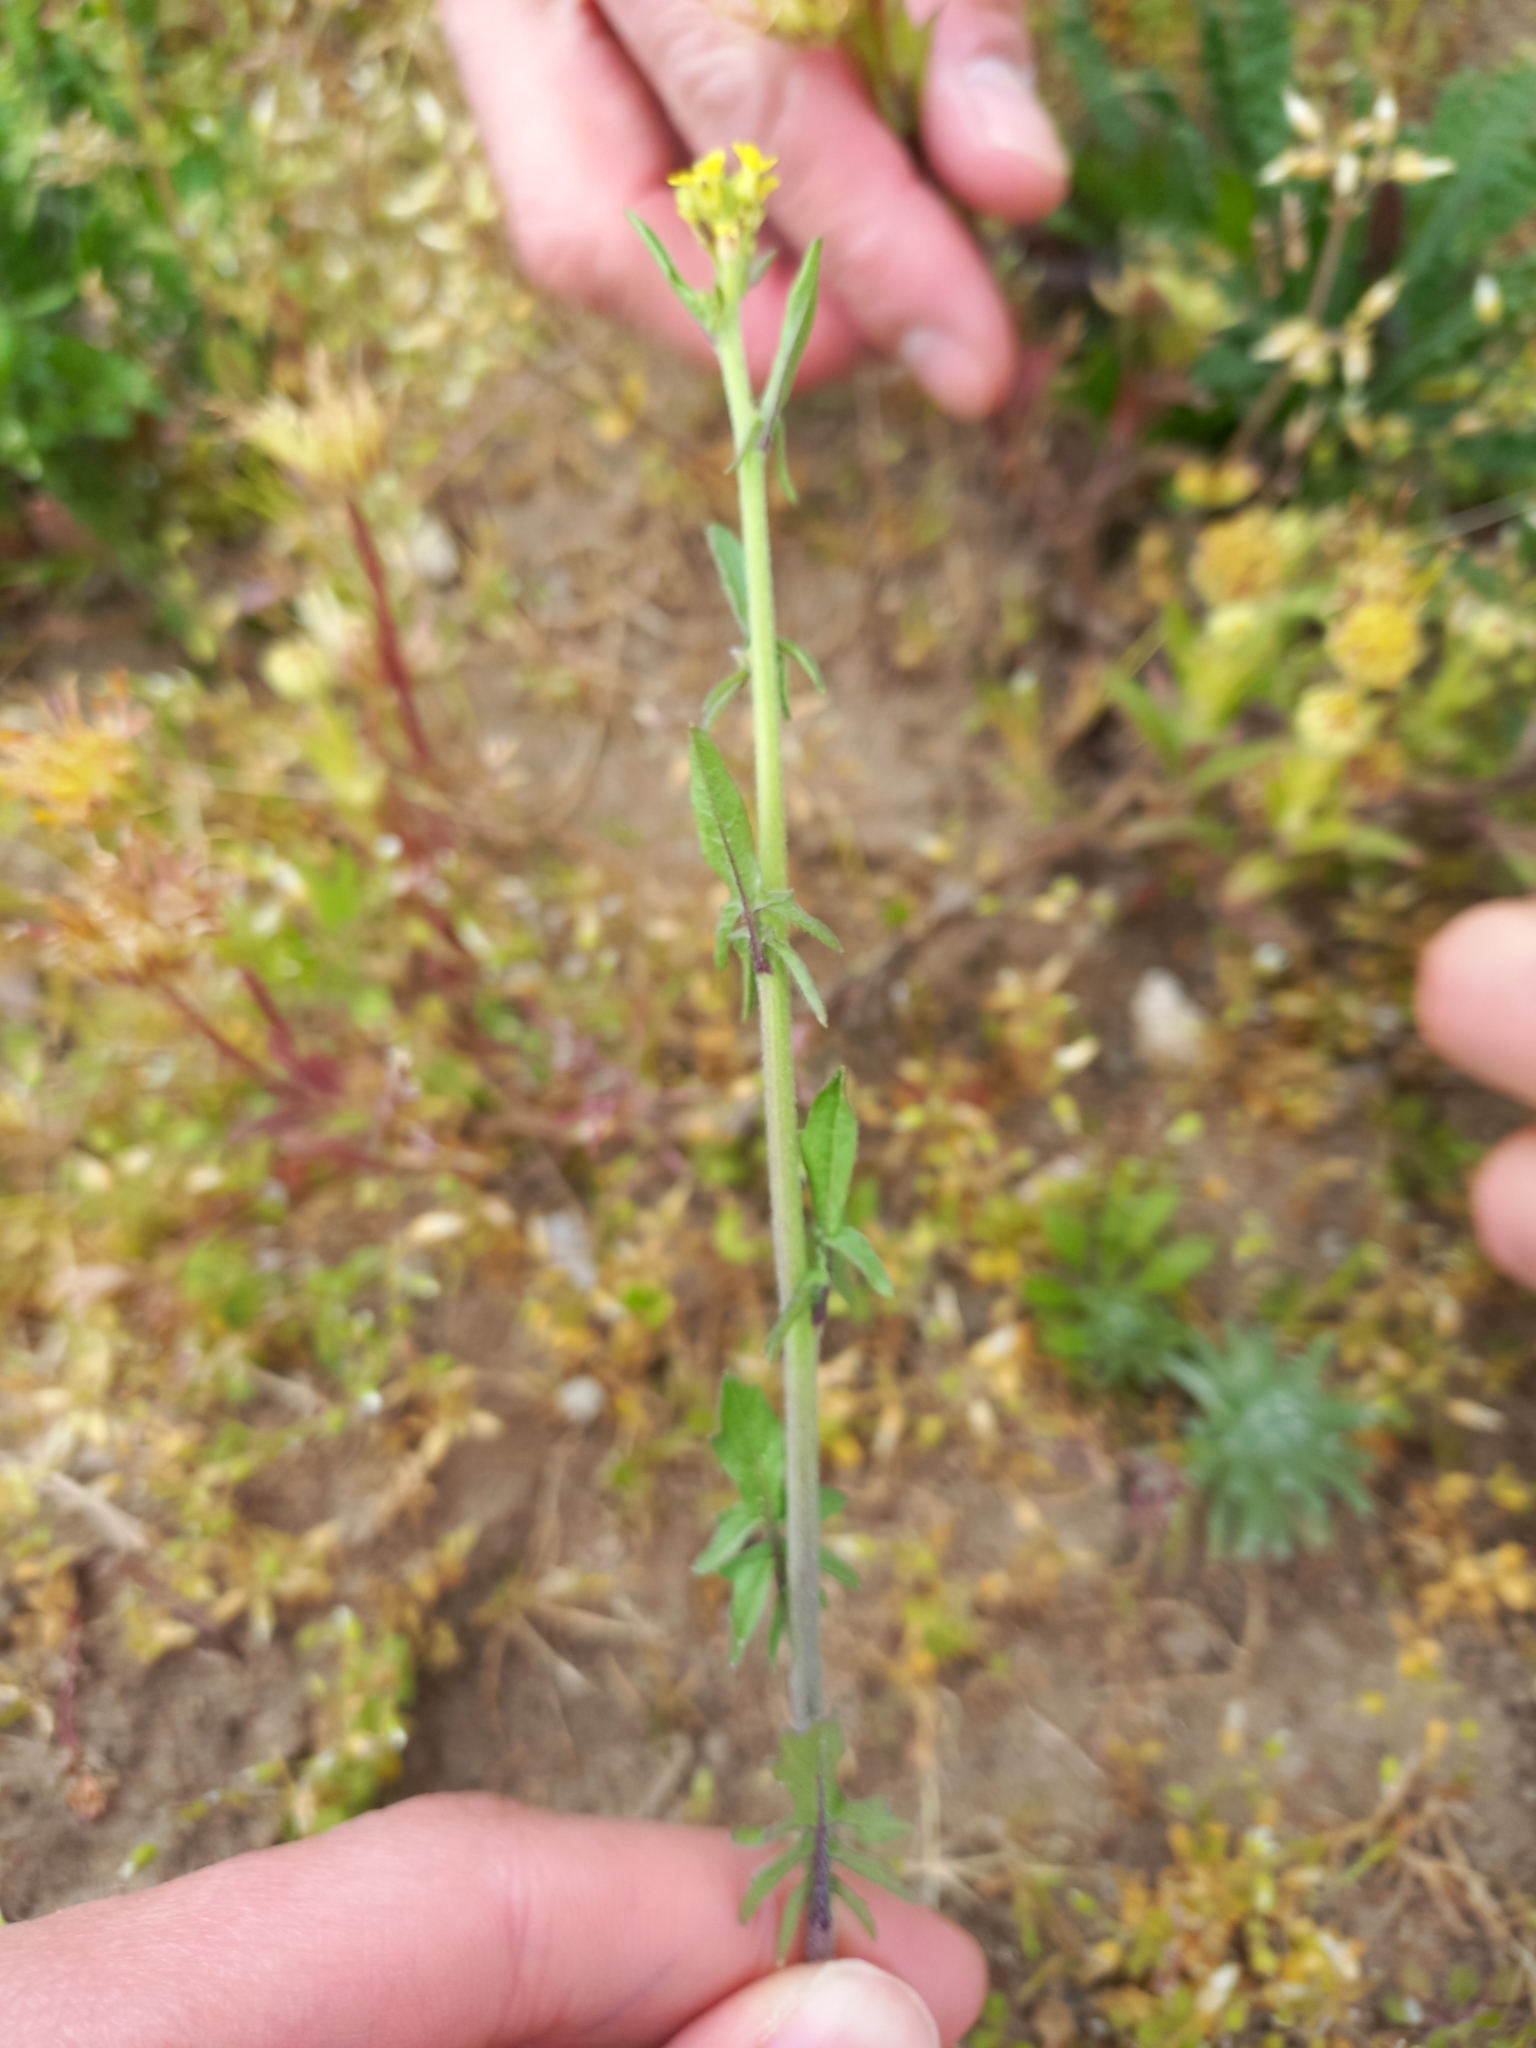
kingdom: Plantae
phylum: Tracheophyta
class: Magnoliopsida
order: Brassicales
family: Brassicaceae
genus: Sisymbrium
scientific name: Sisymbrium officinale
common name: Hedge mustard
